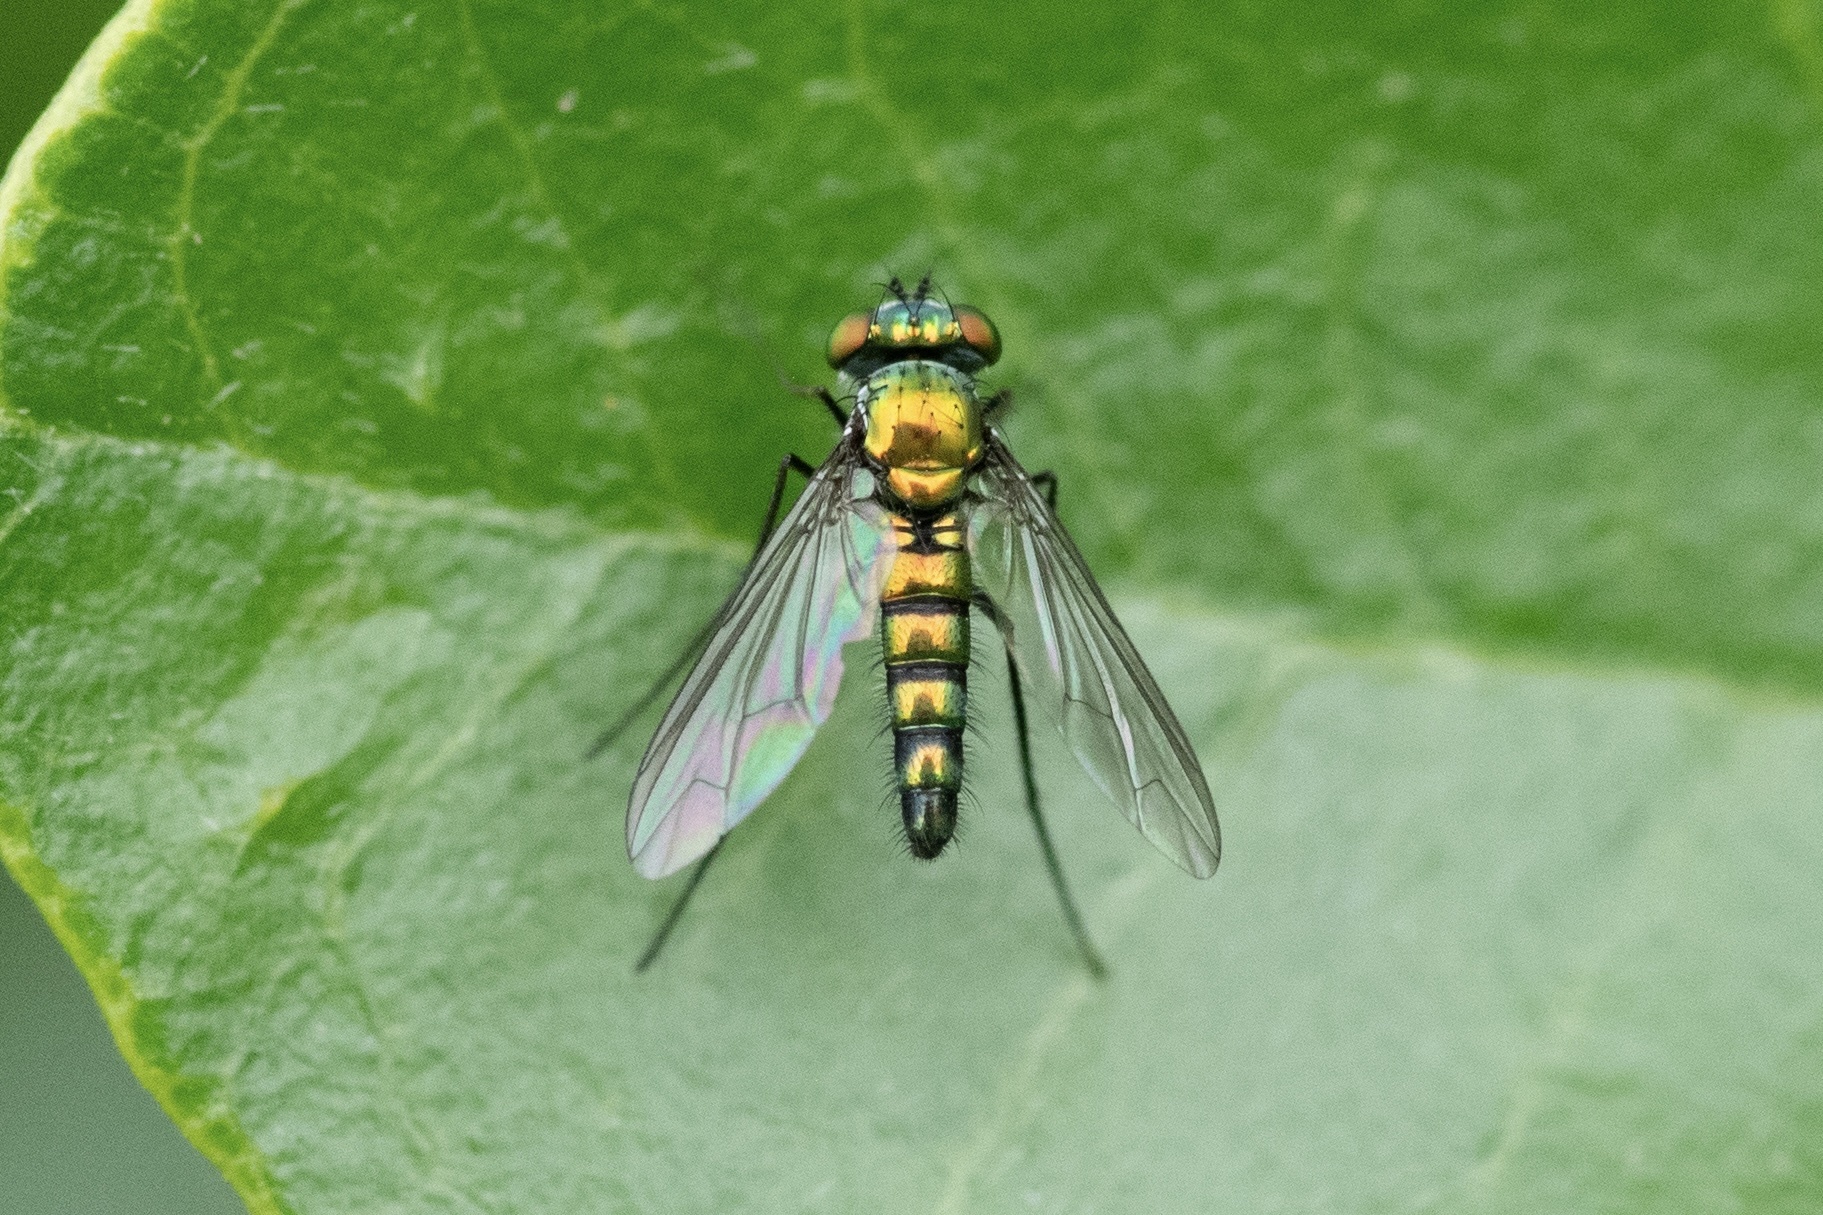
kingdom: Animalia
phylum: Arthropoda
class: Insecta
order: Diptera
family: Dolichopodidae
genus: Condylostylus
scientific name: Condylostylus longicornis
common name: Long-legged fly
